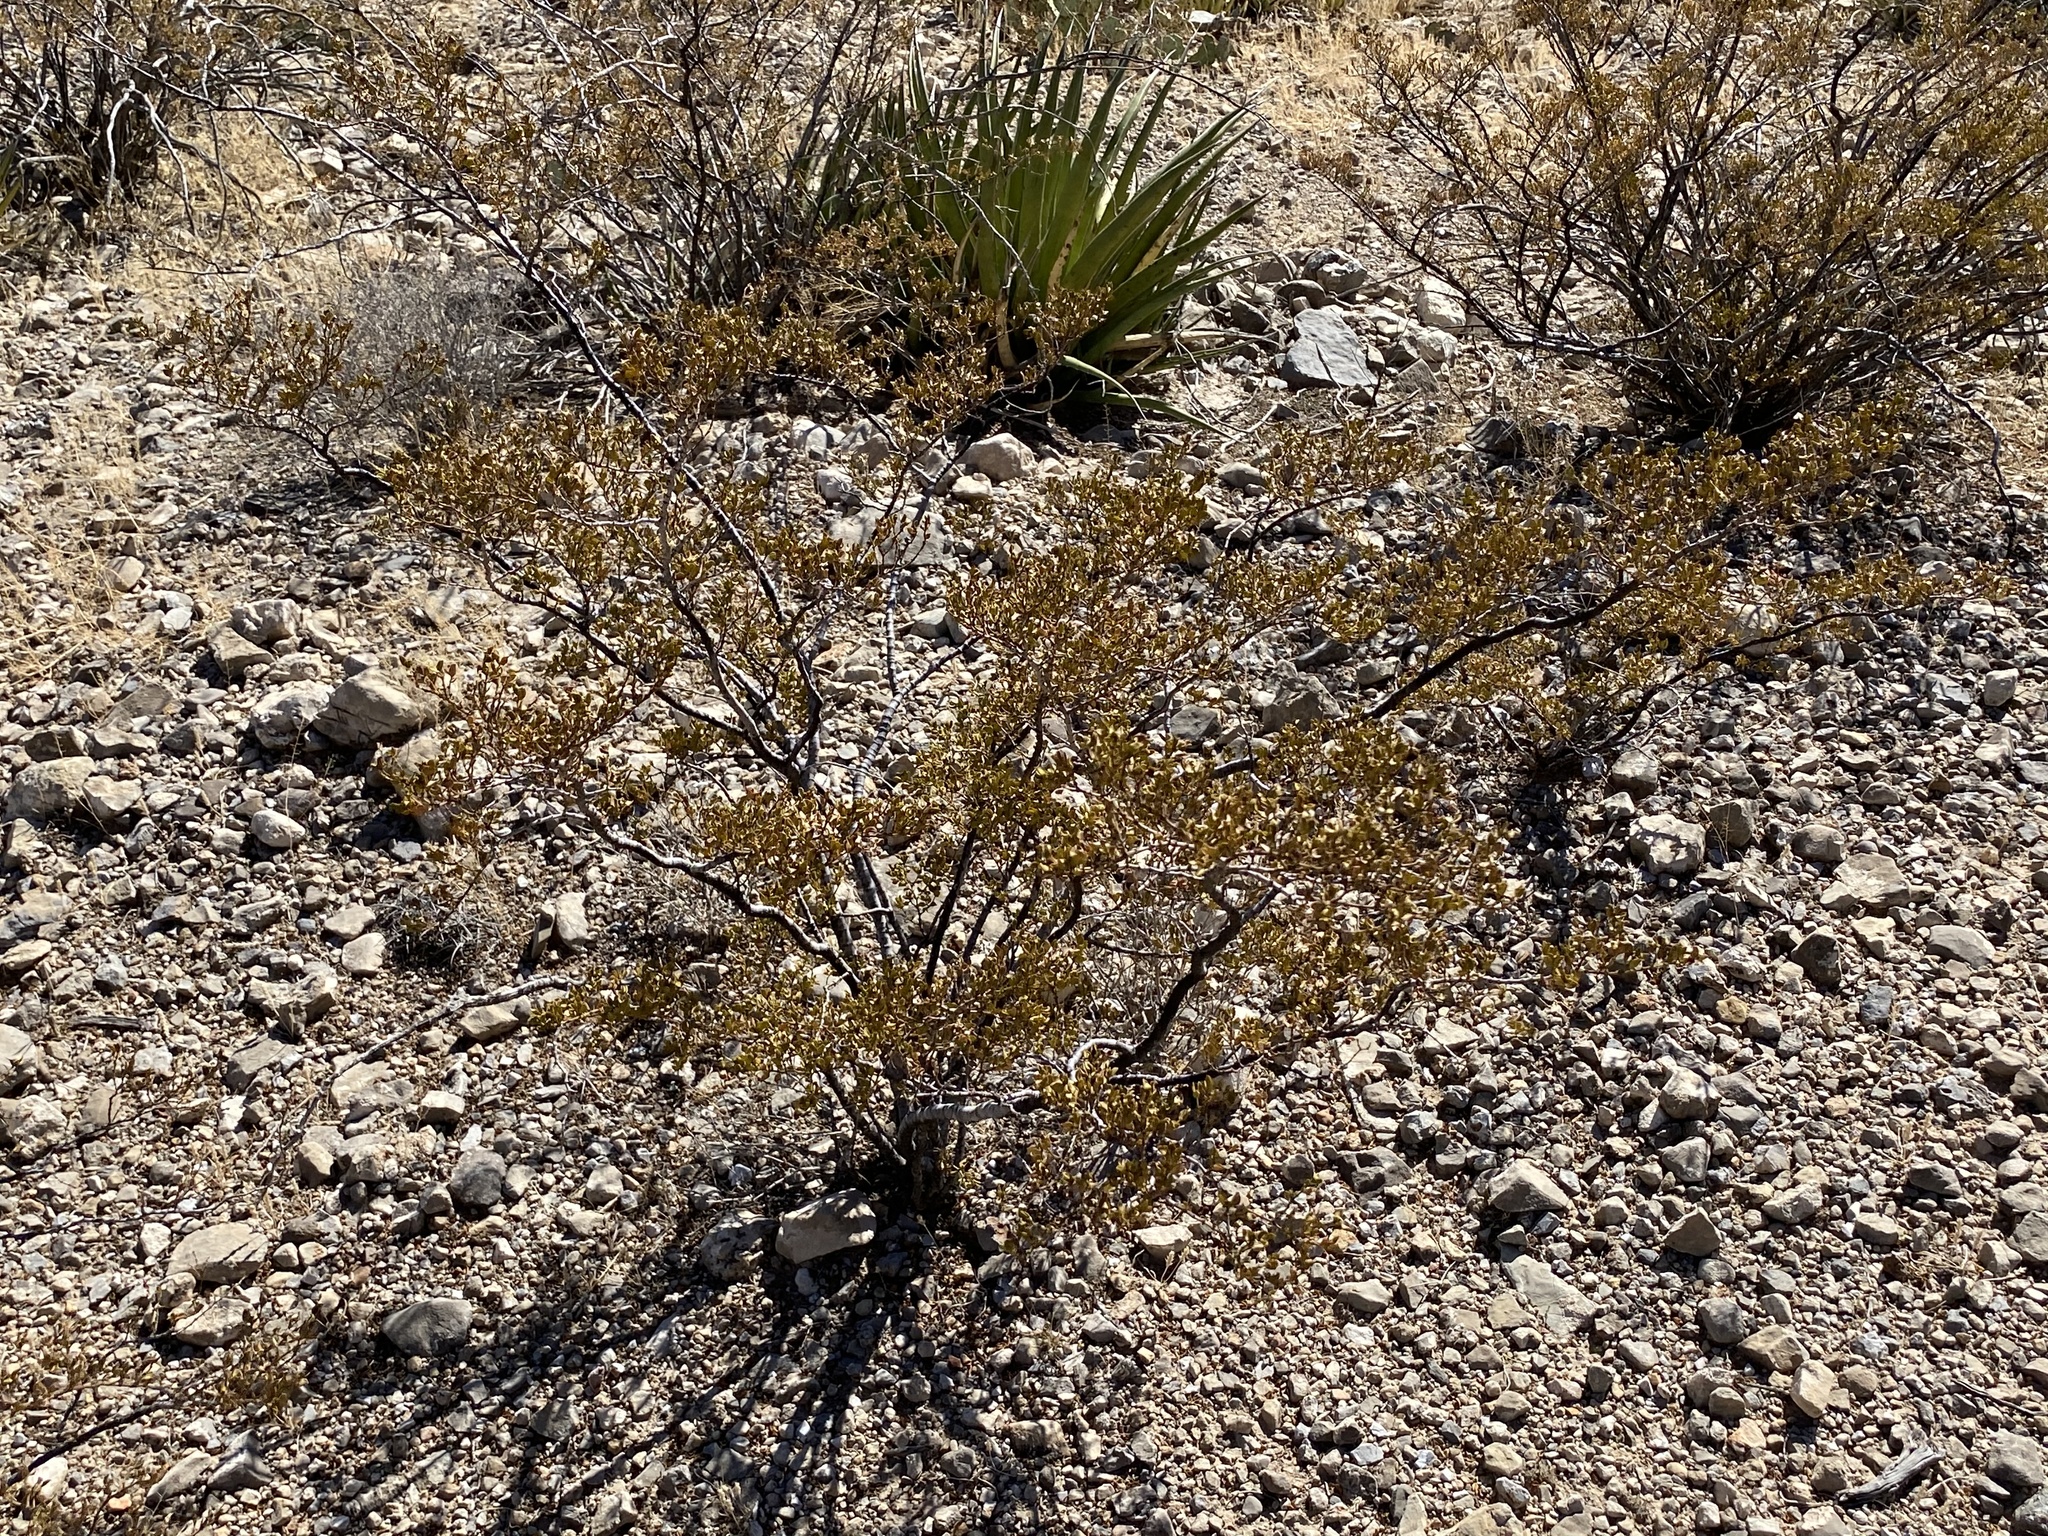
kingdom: Plantae
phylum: Tracheophyta
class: Magnoliopsida
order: Zygophyllales
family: Zygophyllaceae
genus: Larrea
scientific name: Larrea tridentata
